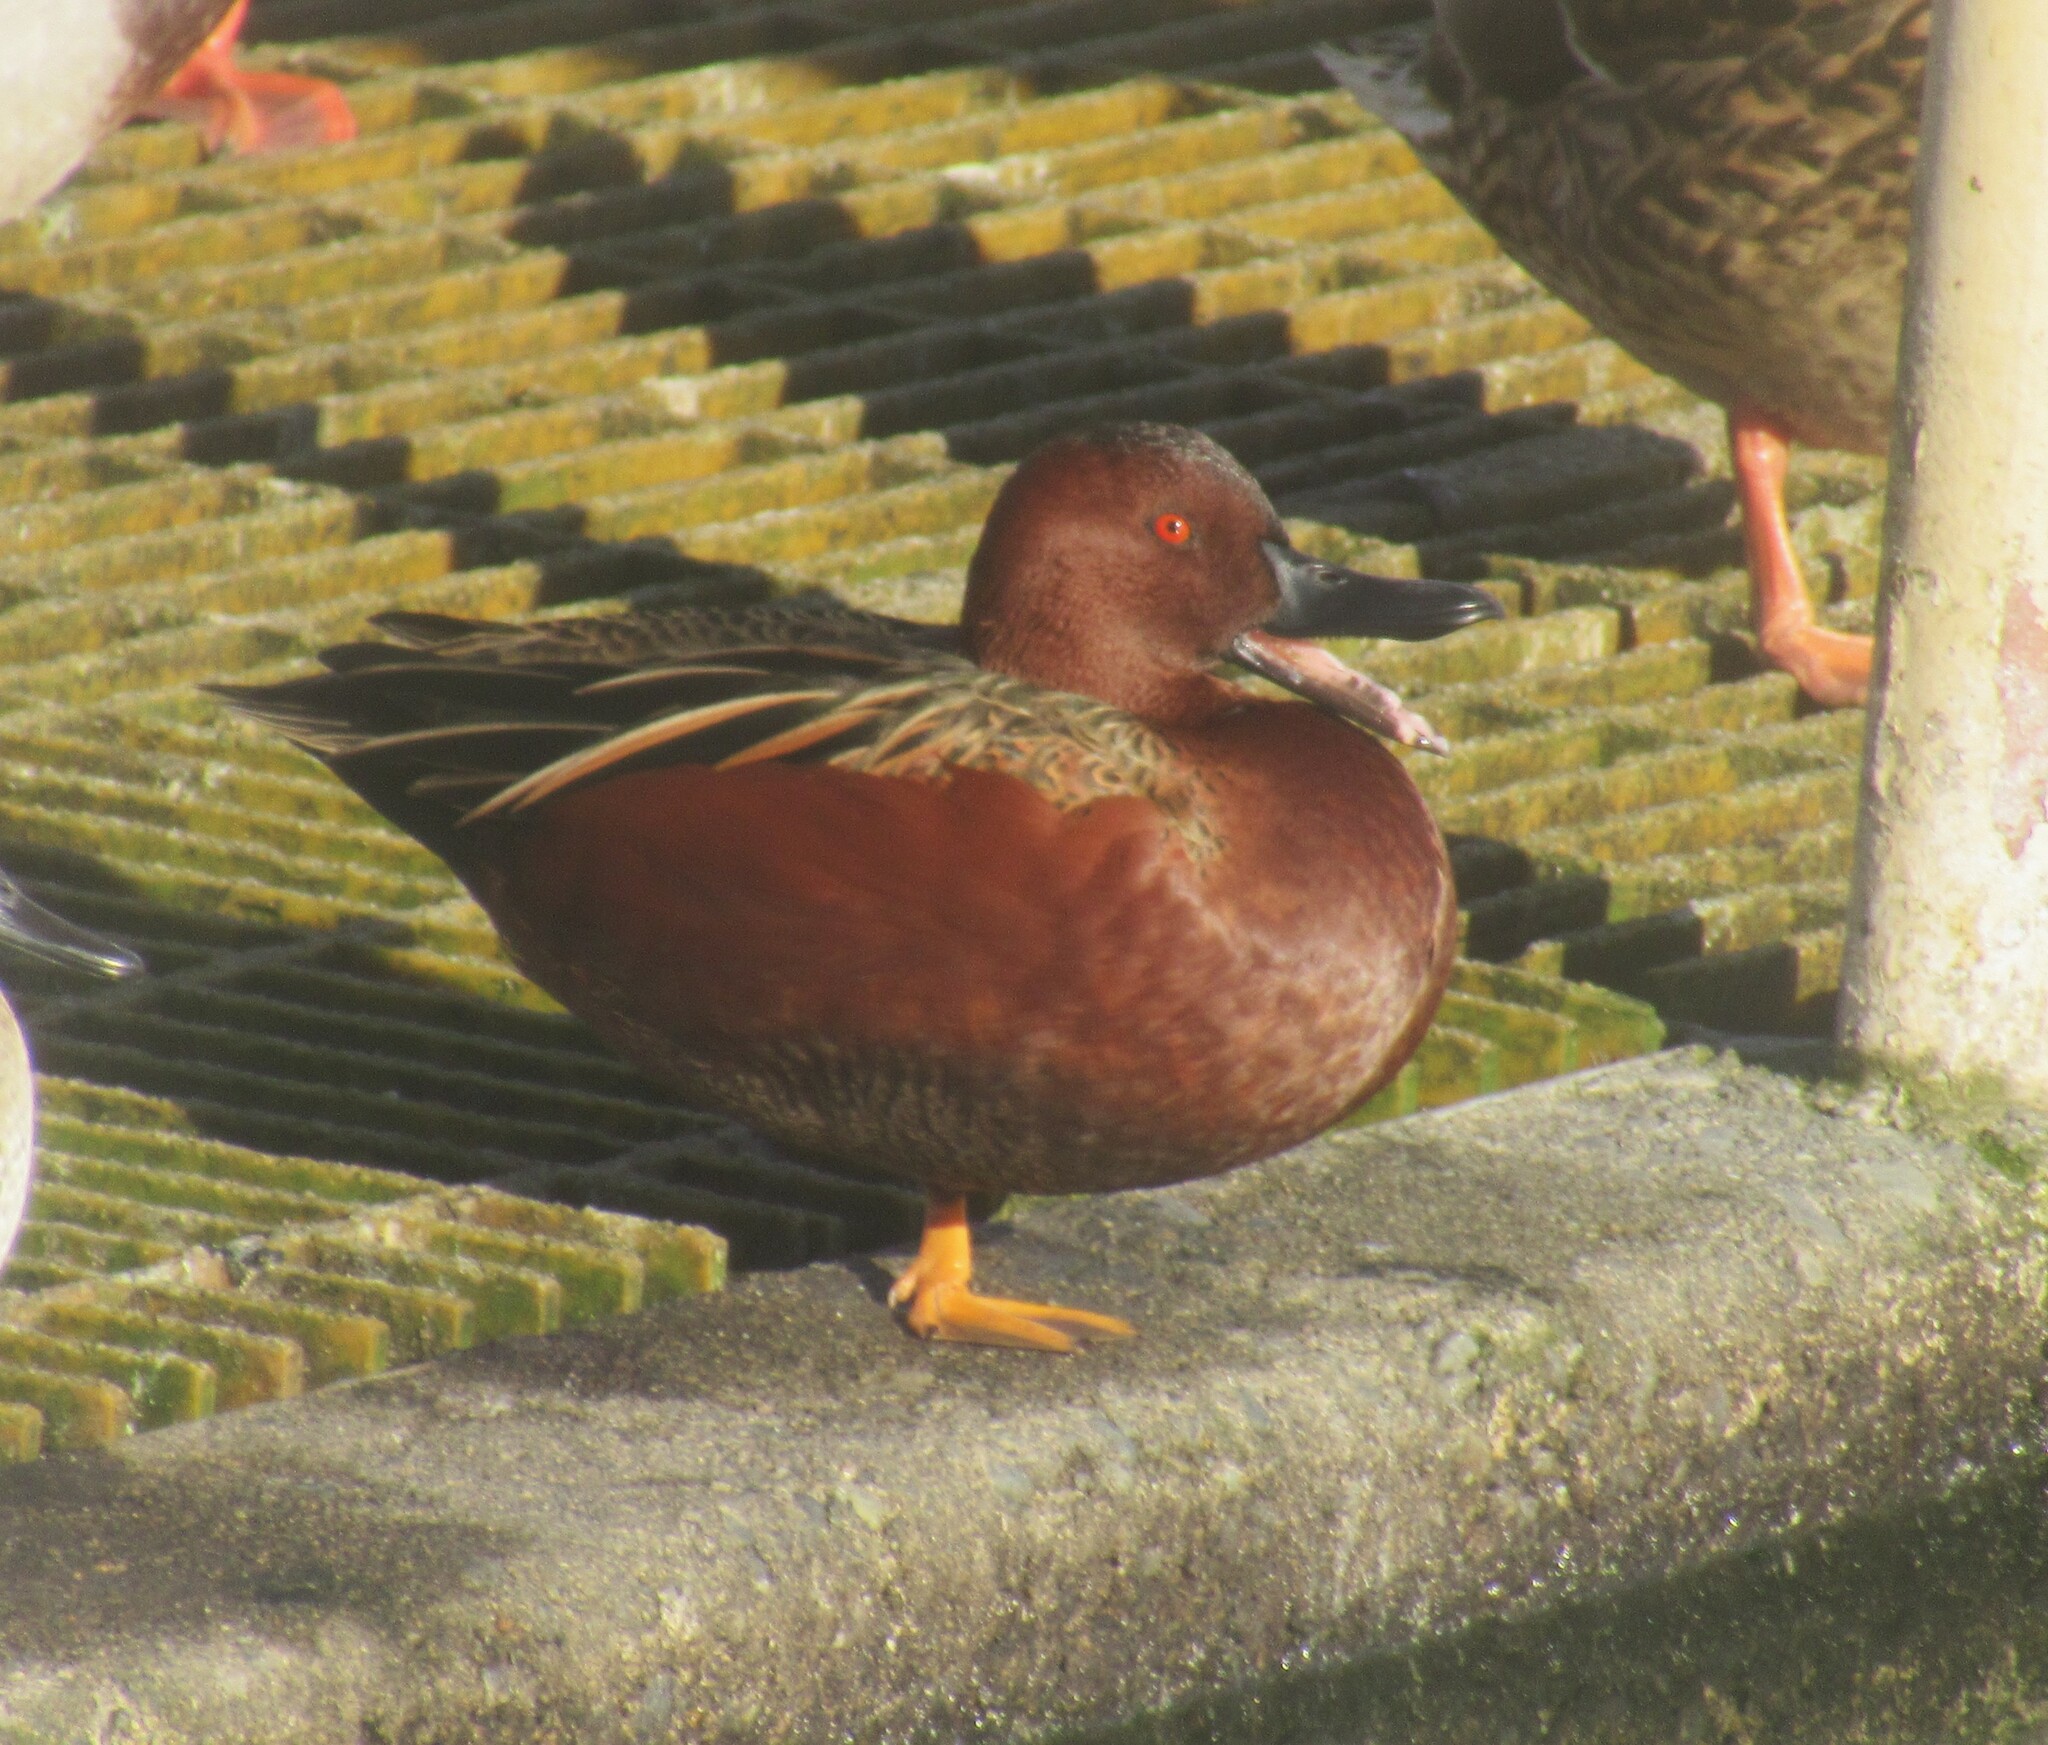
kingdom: Animalia
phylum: Chordata
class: Aves
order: Anseriformes
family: Anatidae
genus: Spatula
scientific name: Spatula cyanoptera
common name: Cinnamon teal
